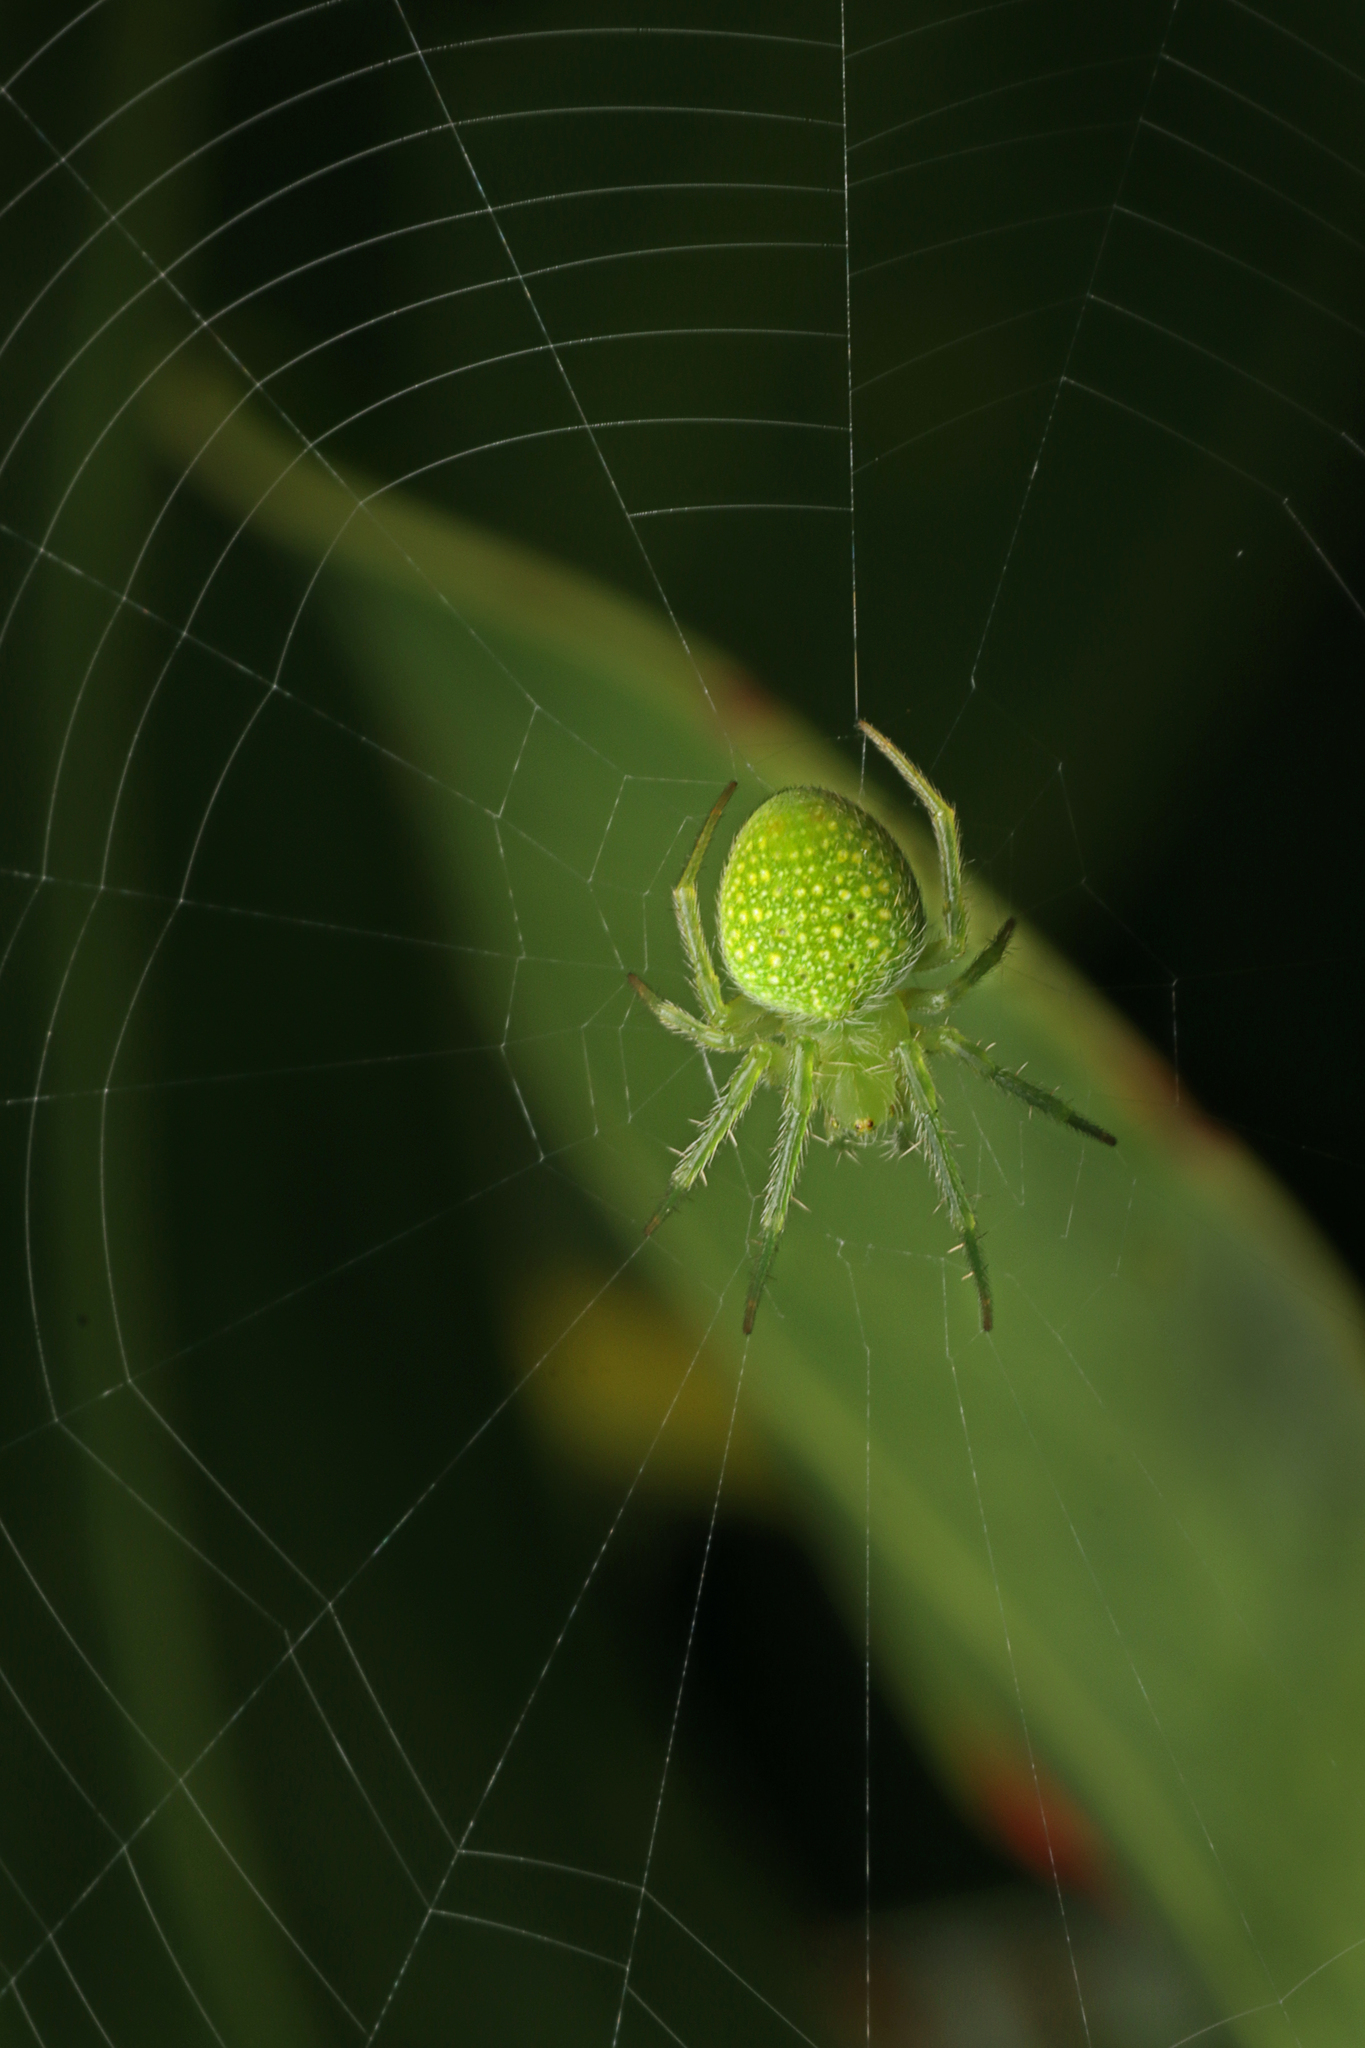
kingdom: Animalia
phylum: Arthropoda
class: Arachnida
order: Araneae
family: Araneidae
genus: Araneus
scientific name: Araneus circulissparsus
